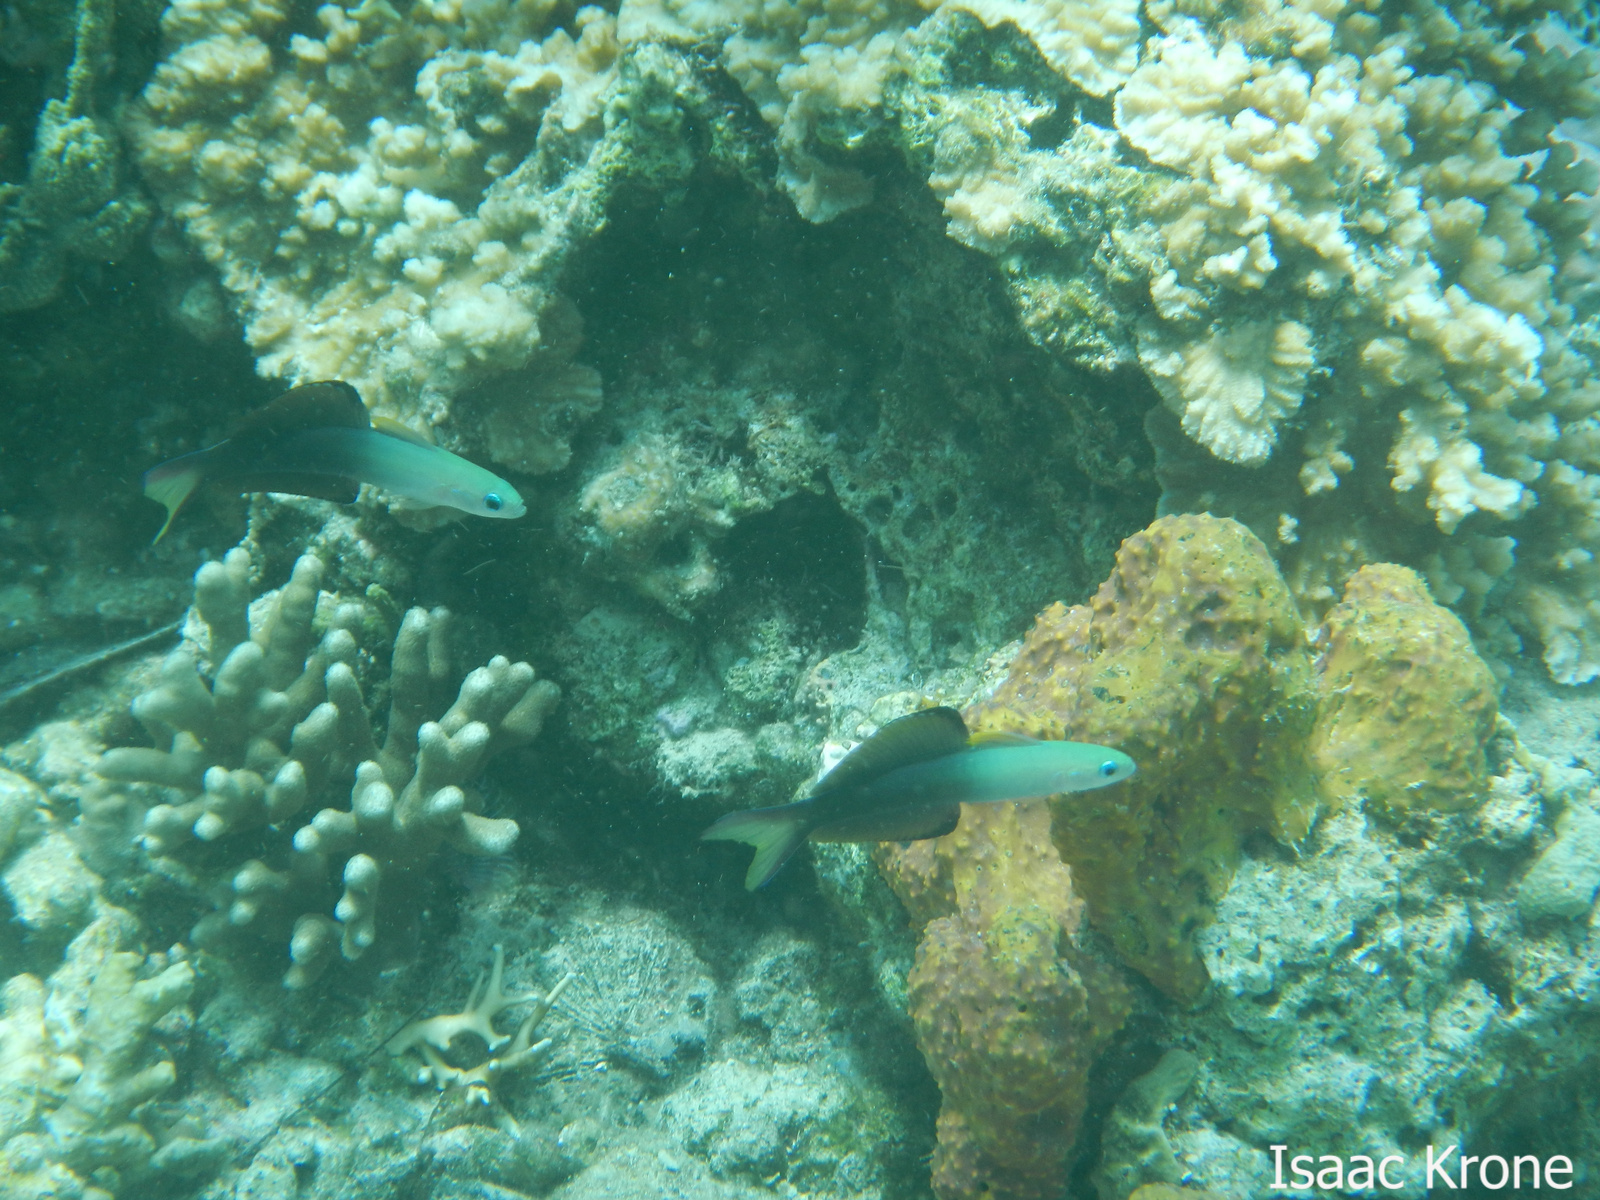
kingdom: Animalia
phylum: Chordata
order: Perciformes
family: Microdesmidae
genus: Ptereleotris
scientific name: Ptereleotris evides
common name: Blackfin dartfish
